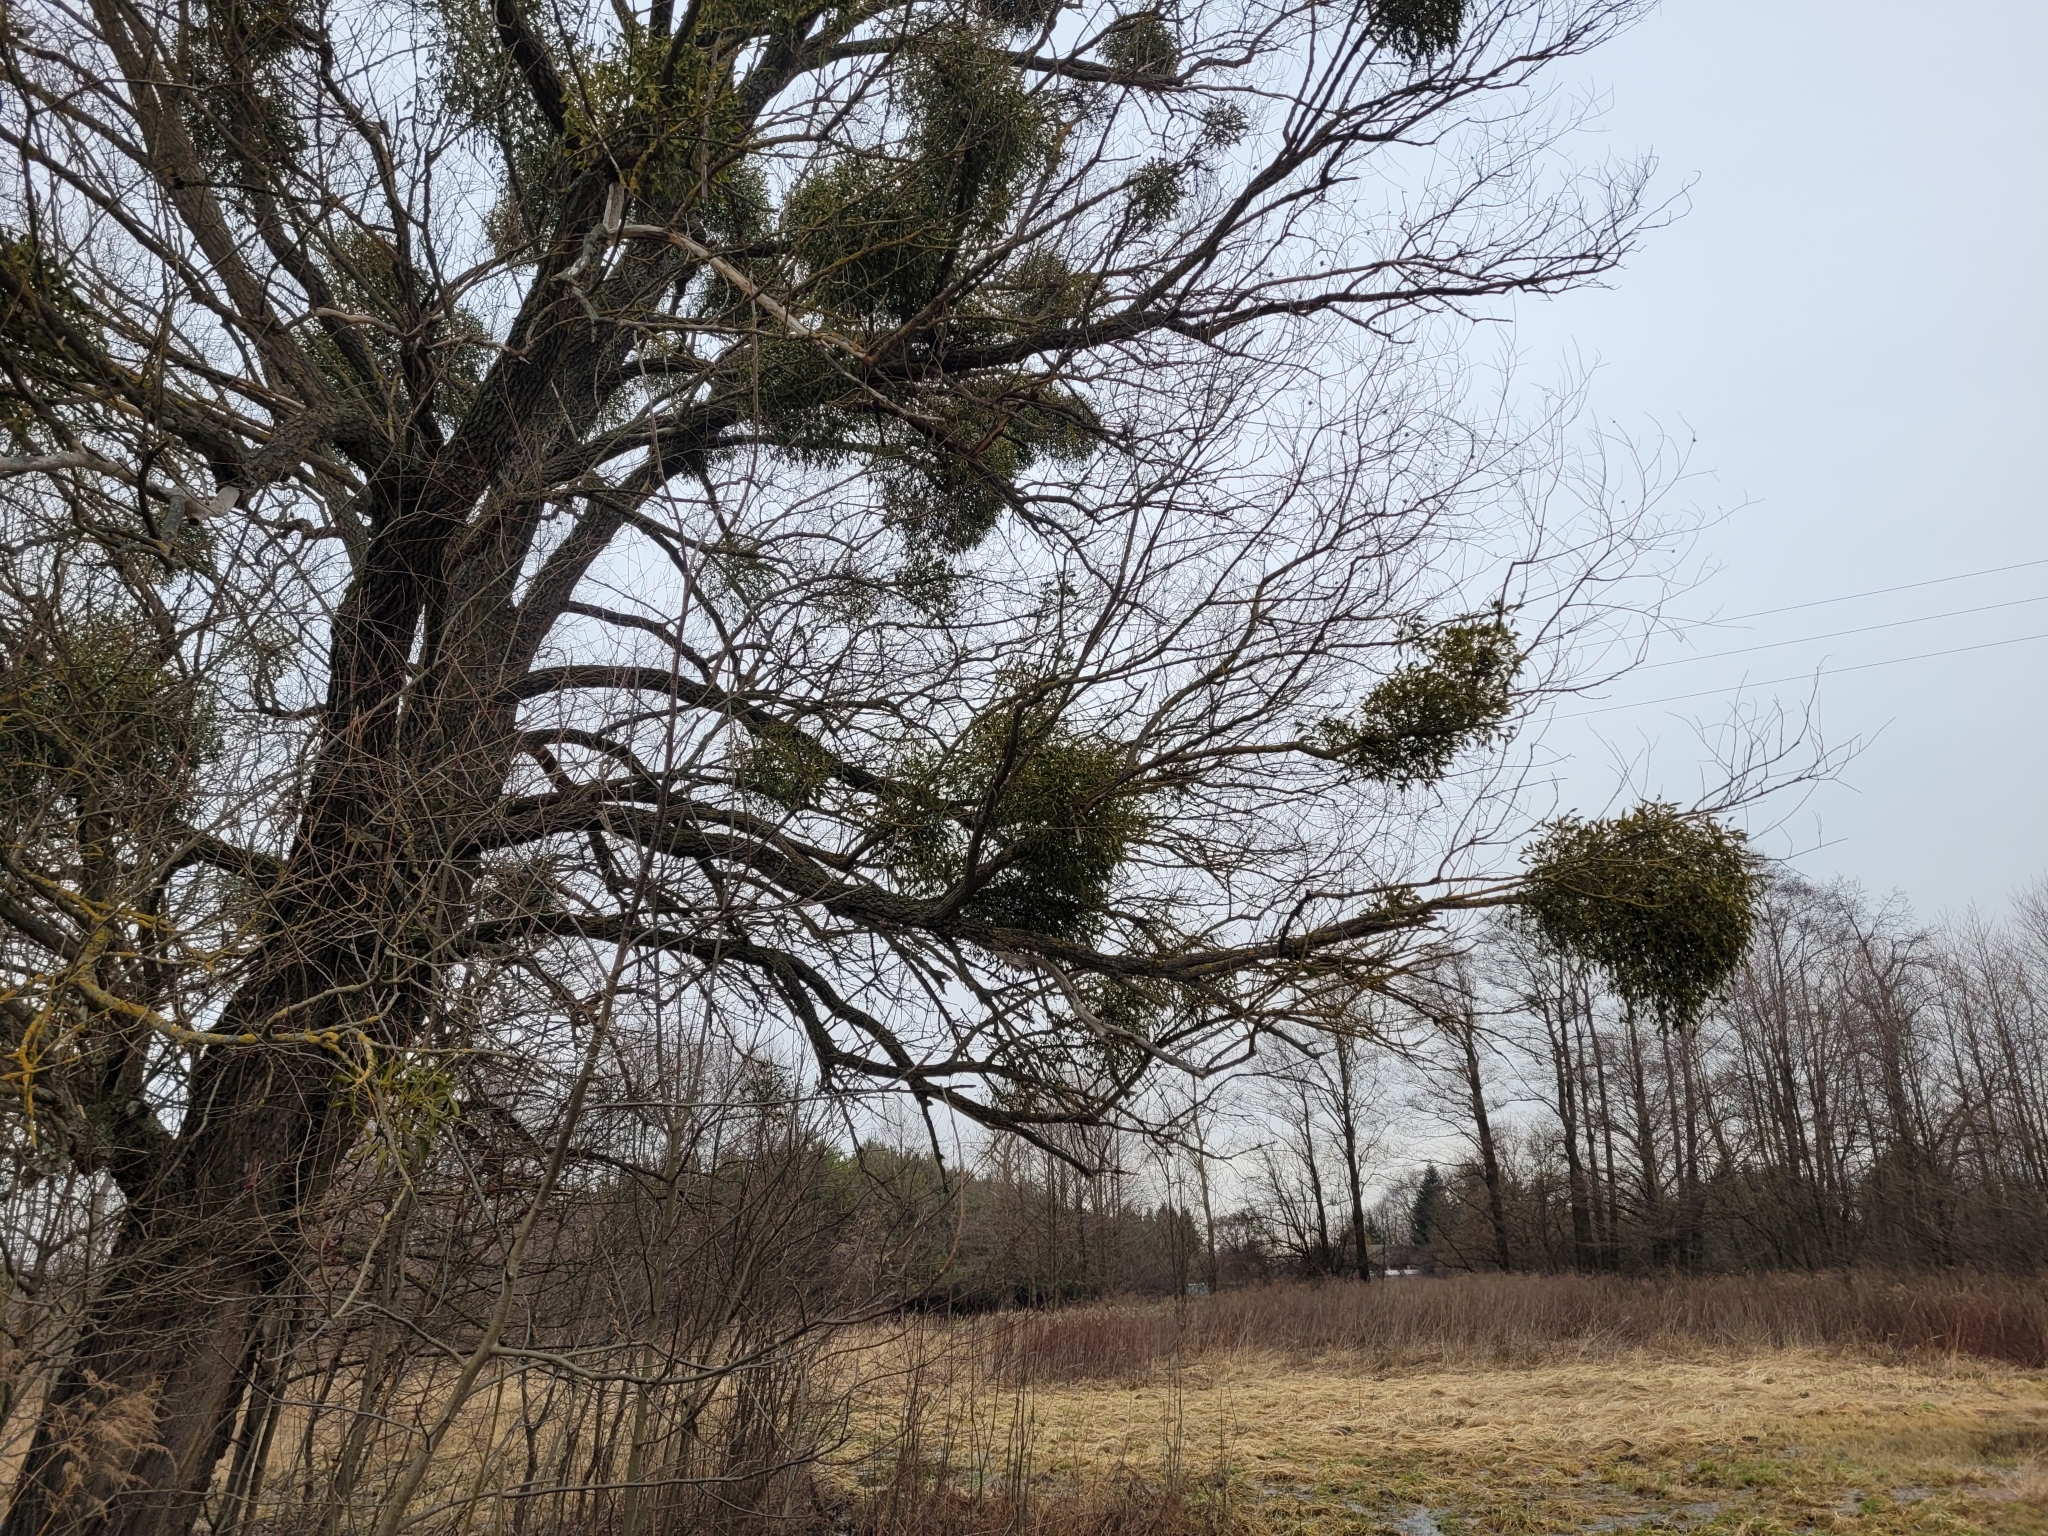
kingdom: Plantae
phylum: Tracheophyta
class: Magnoliopsida
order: Santalales
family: Viscaceae
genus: Viscum
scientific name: Viscum album
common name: Mistletoe
